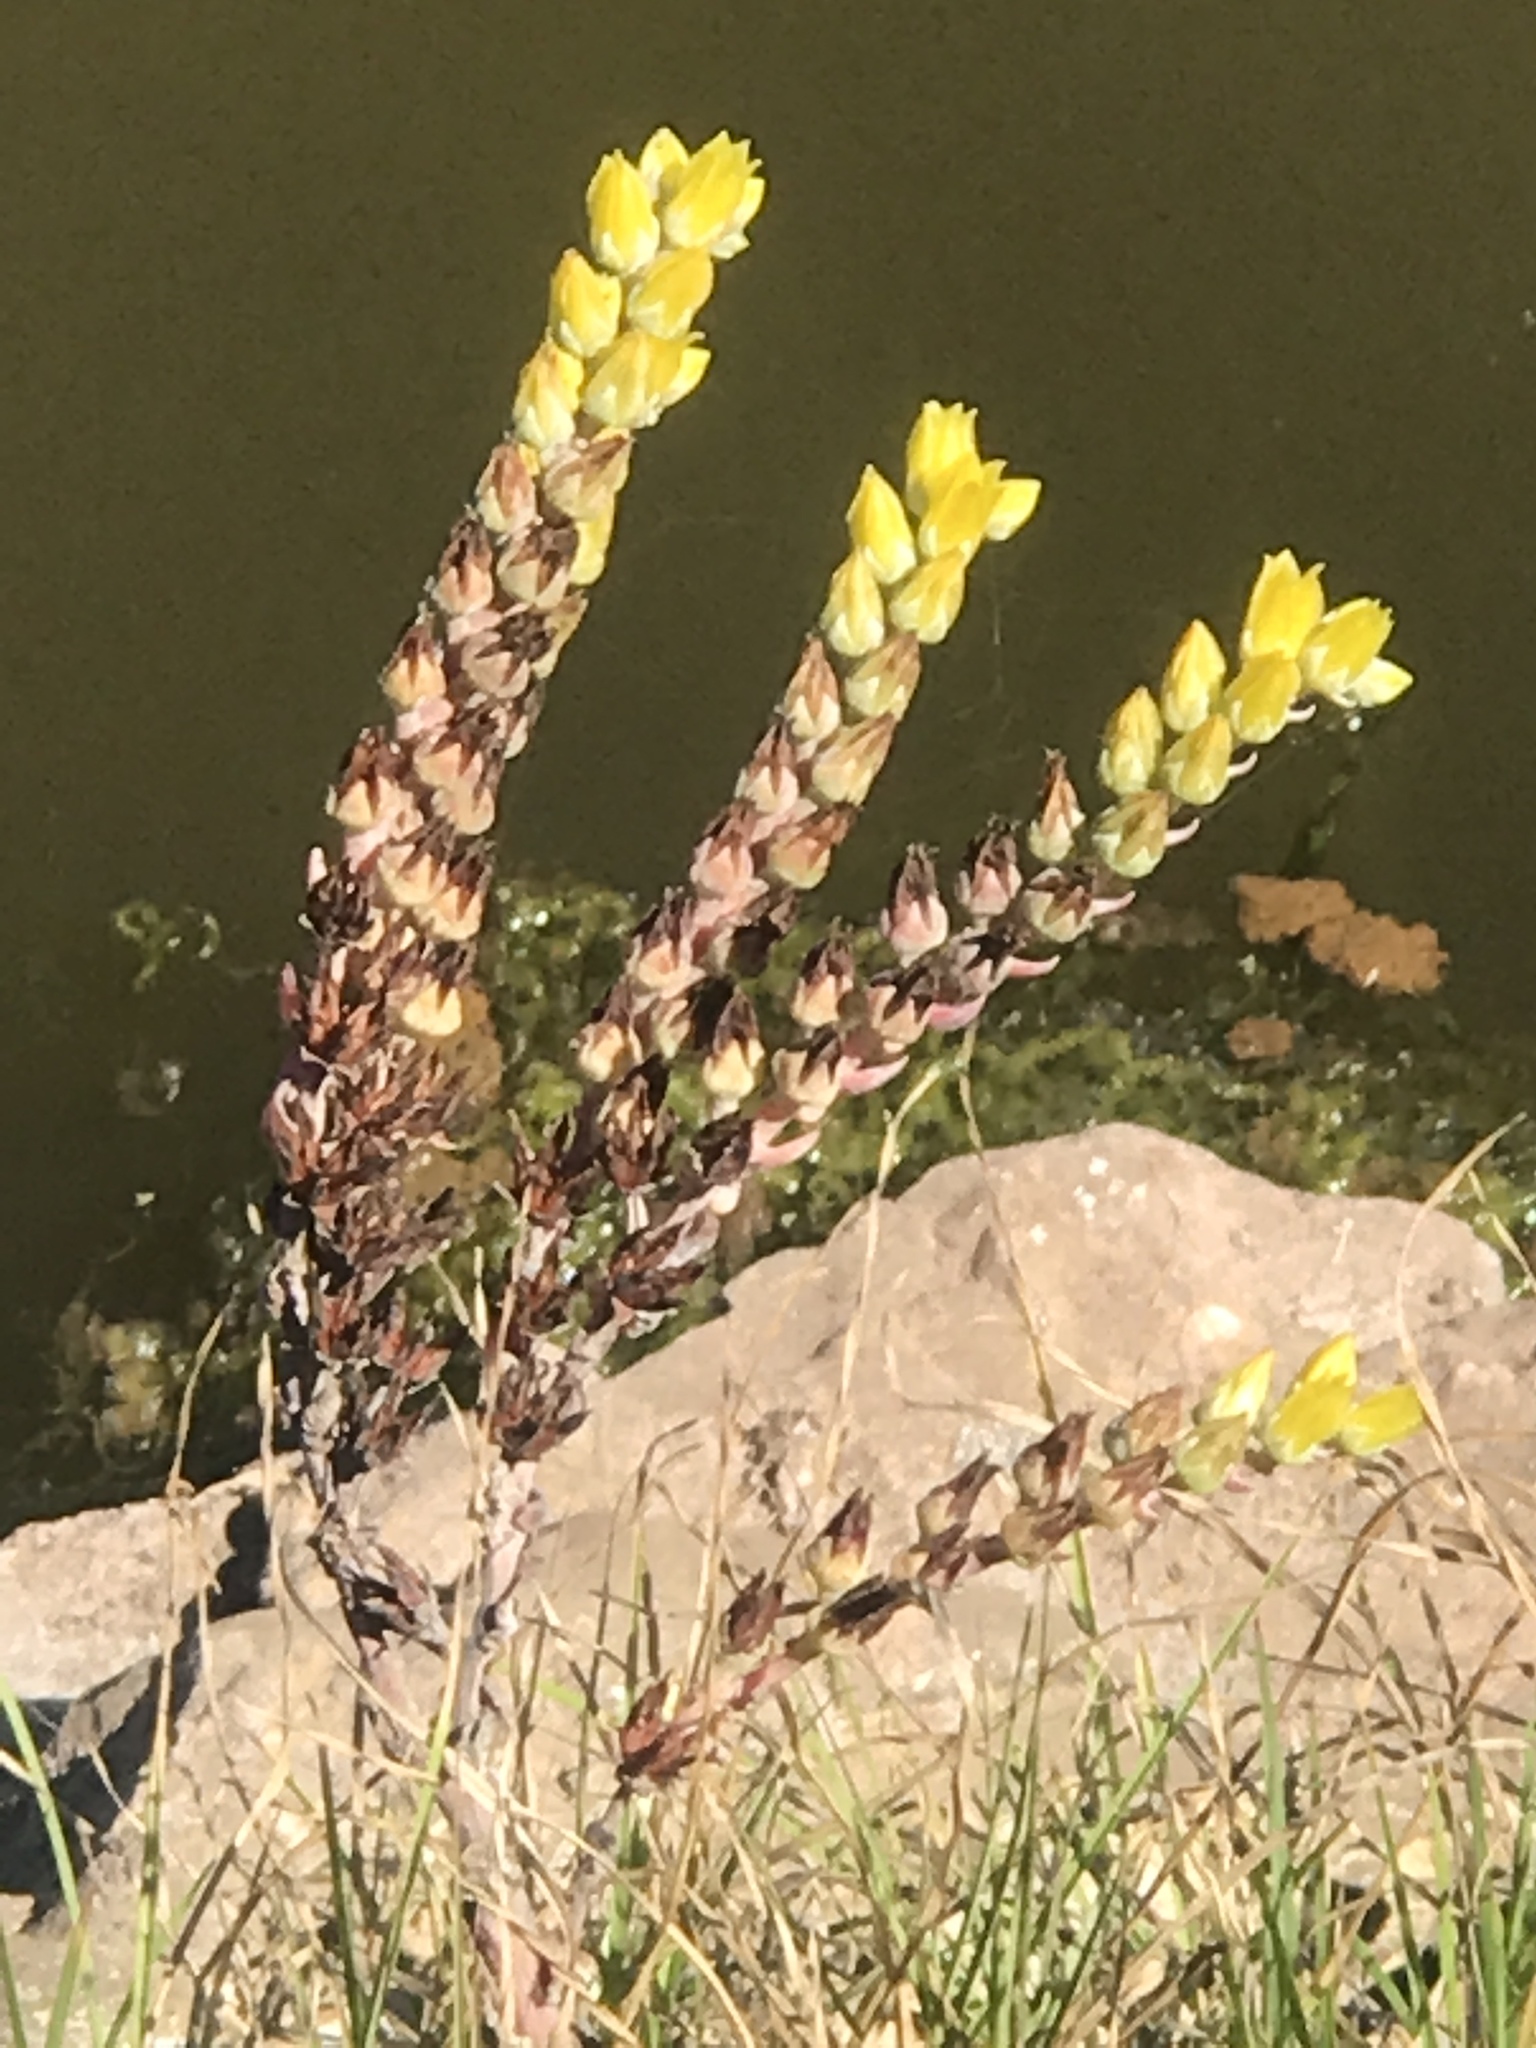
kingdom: Plantae
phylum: Tracheophyta
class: Magnoliopsida
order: Saxifragales
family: Crassulaceae
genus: Dudleya
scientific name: Dudleya caespitosa
